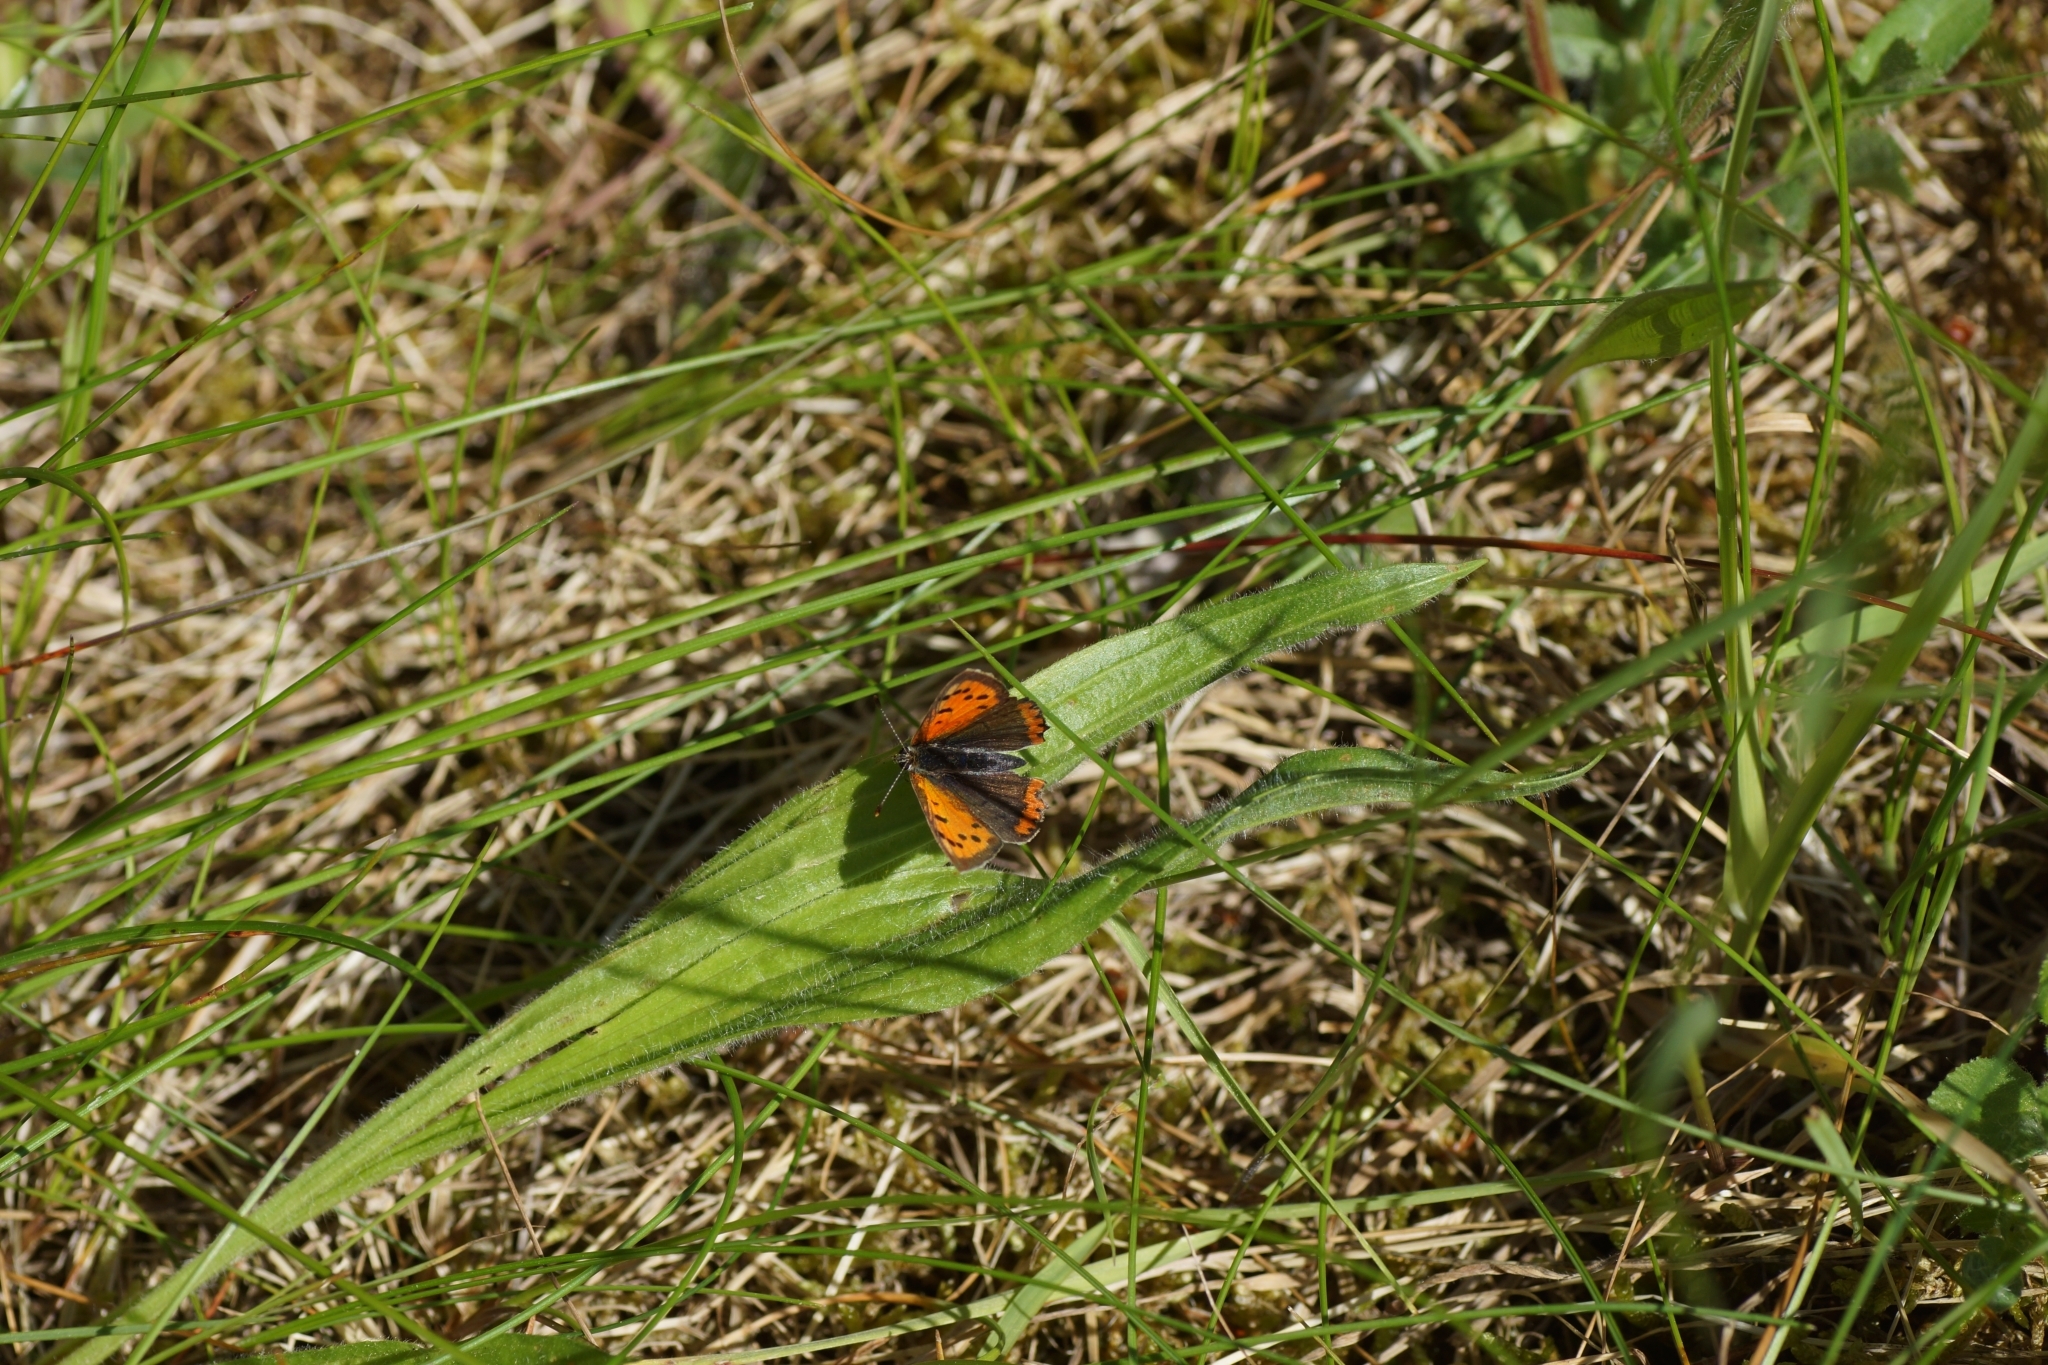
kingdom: Animalia
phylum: Arthropoda
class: Insecta
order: Lepidoptera
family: Lycaenidae
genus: Lycaena
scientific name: Lycaena phlaeas
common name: Small copper
